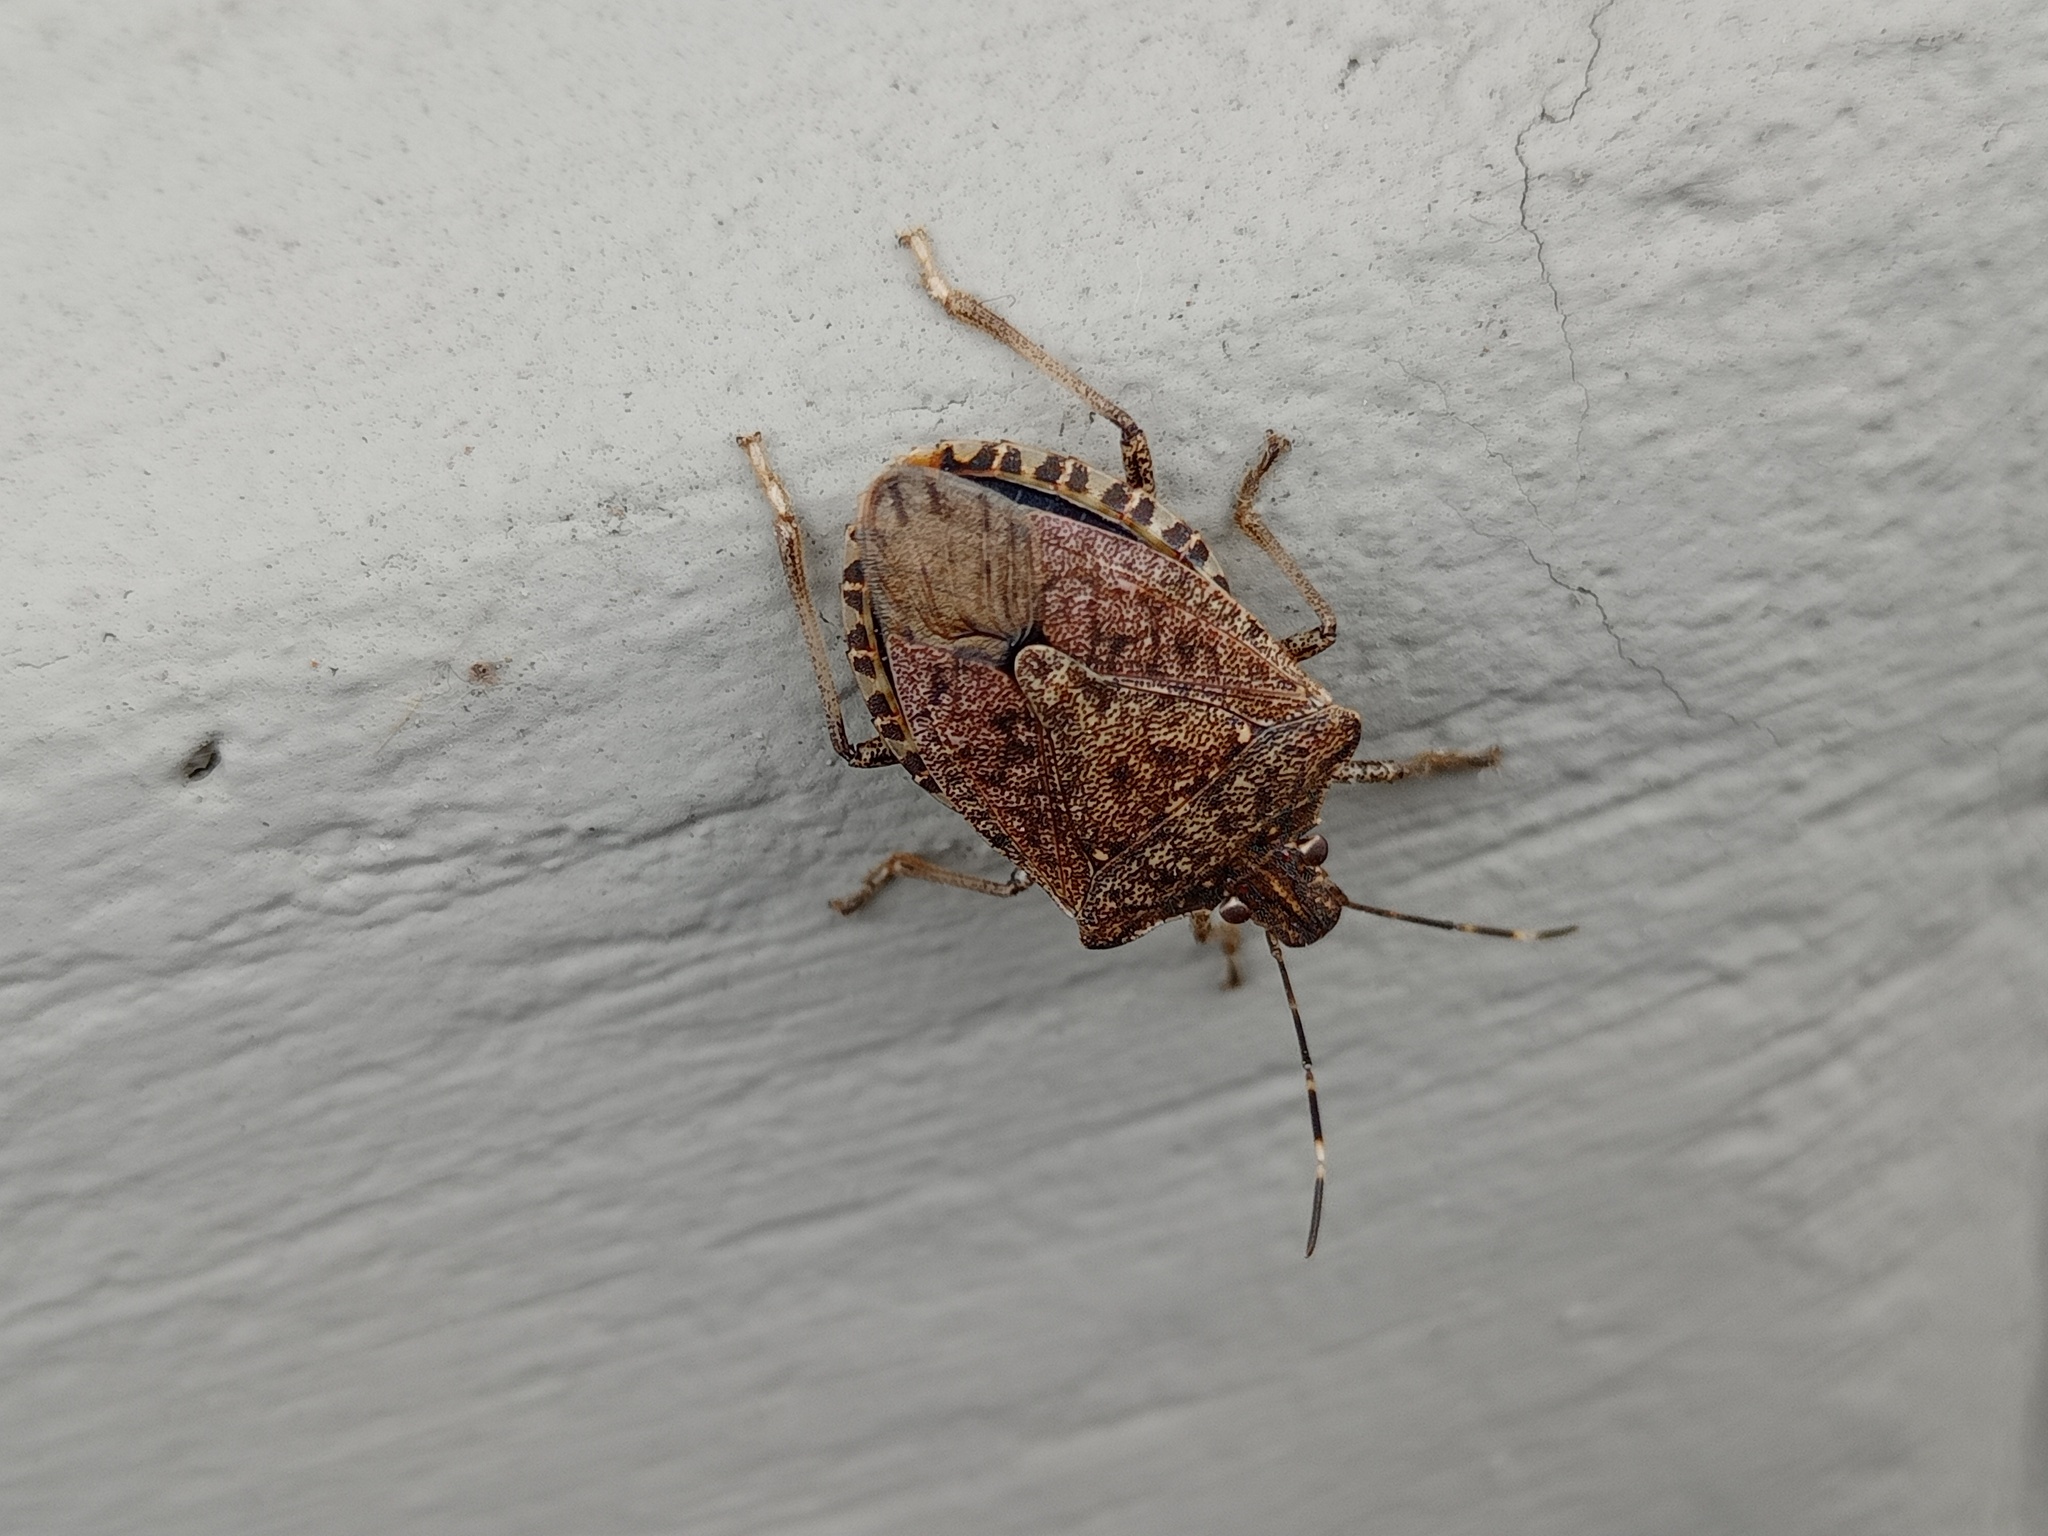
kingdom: Animalia
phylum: Arthropoda
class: Insecta
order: Hemiptera
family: Pentatomidae
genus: Halyomorpha
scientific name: Halyomorpha halys
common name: Brown marmorated stink bug
